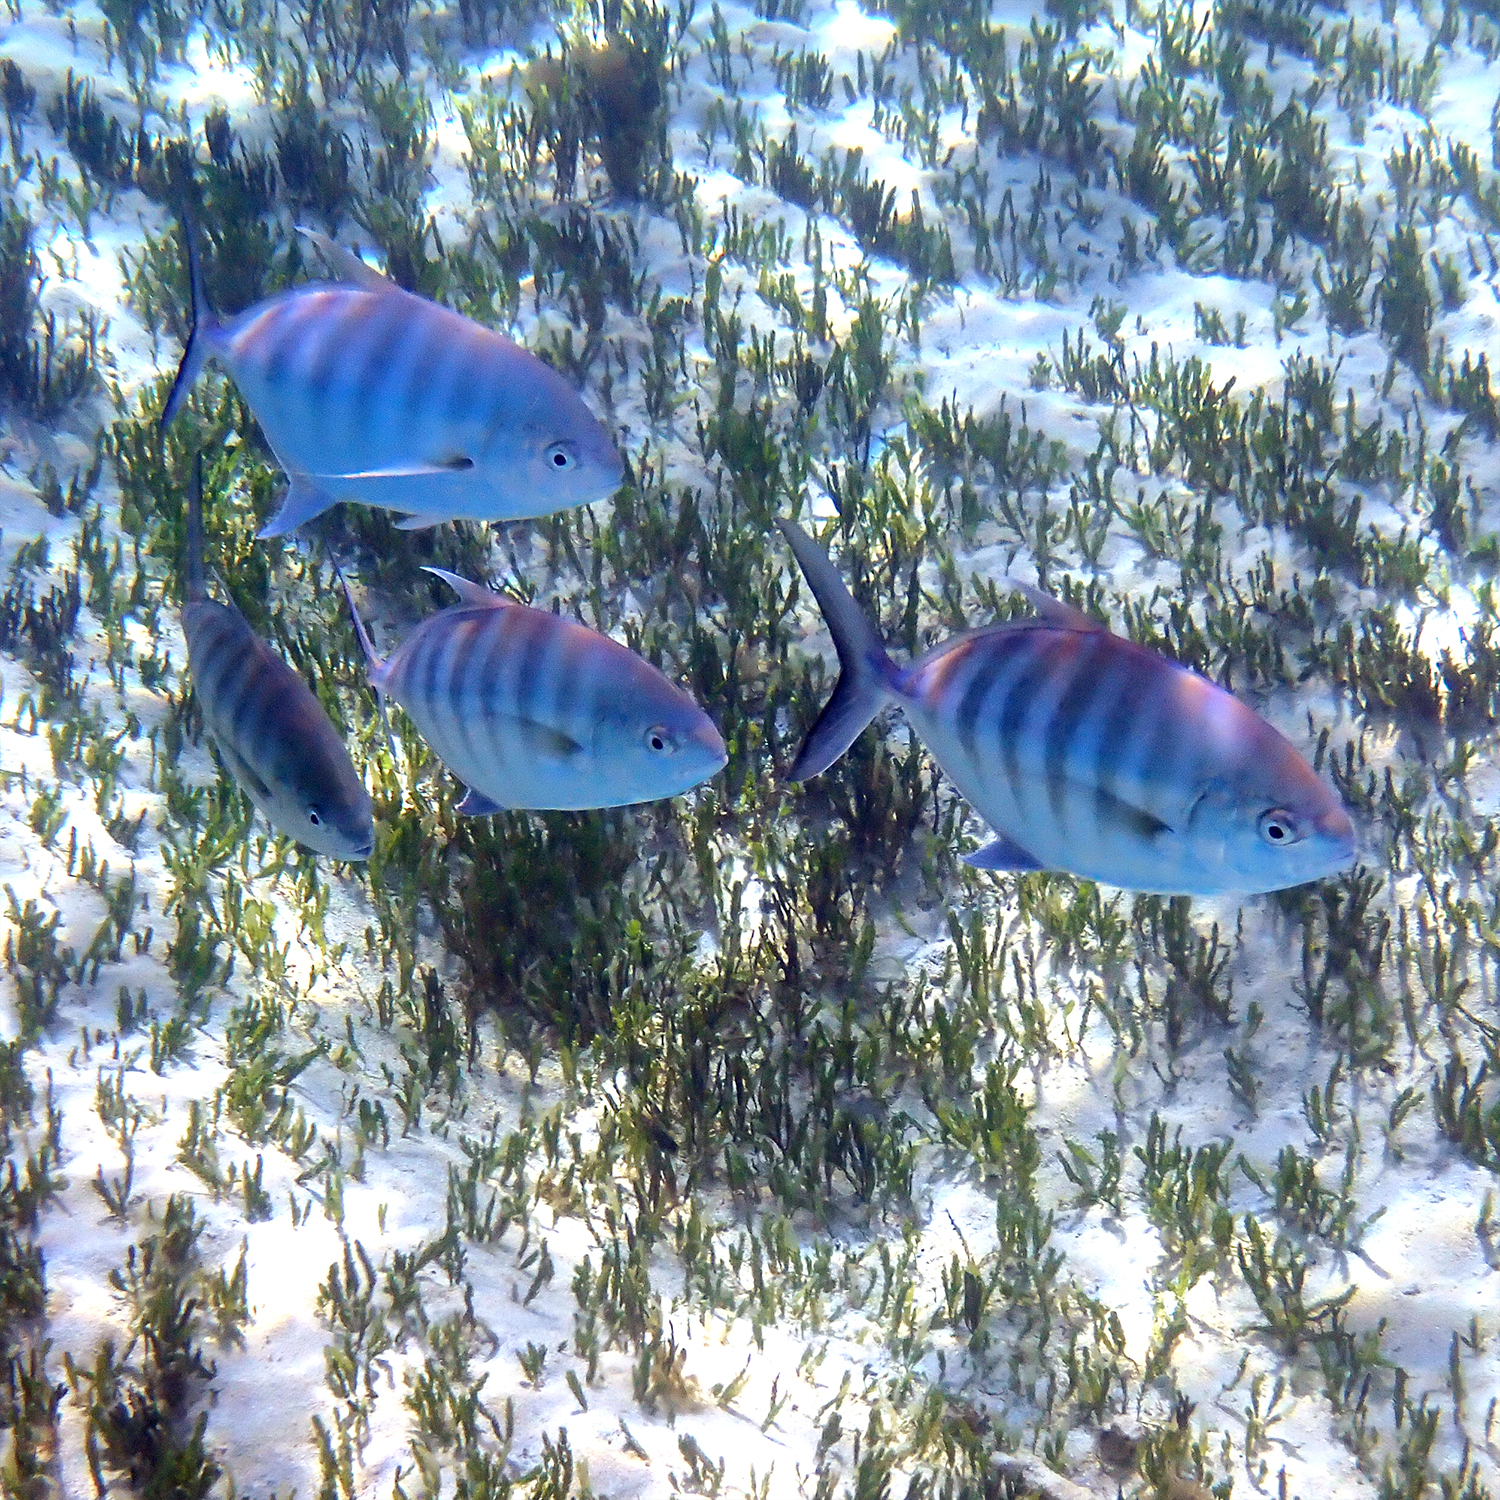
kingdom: Animalia
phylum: Chordata
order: Perciformes
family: Carangidae
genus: Carangoides
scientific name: Carangoides Ferdauia ferdau
